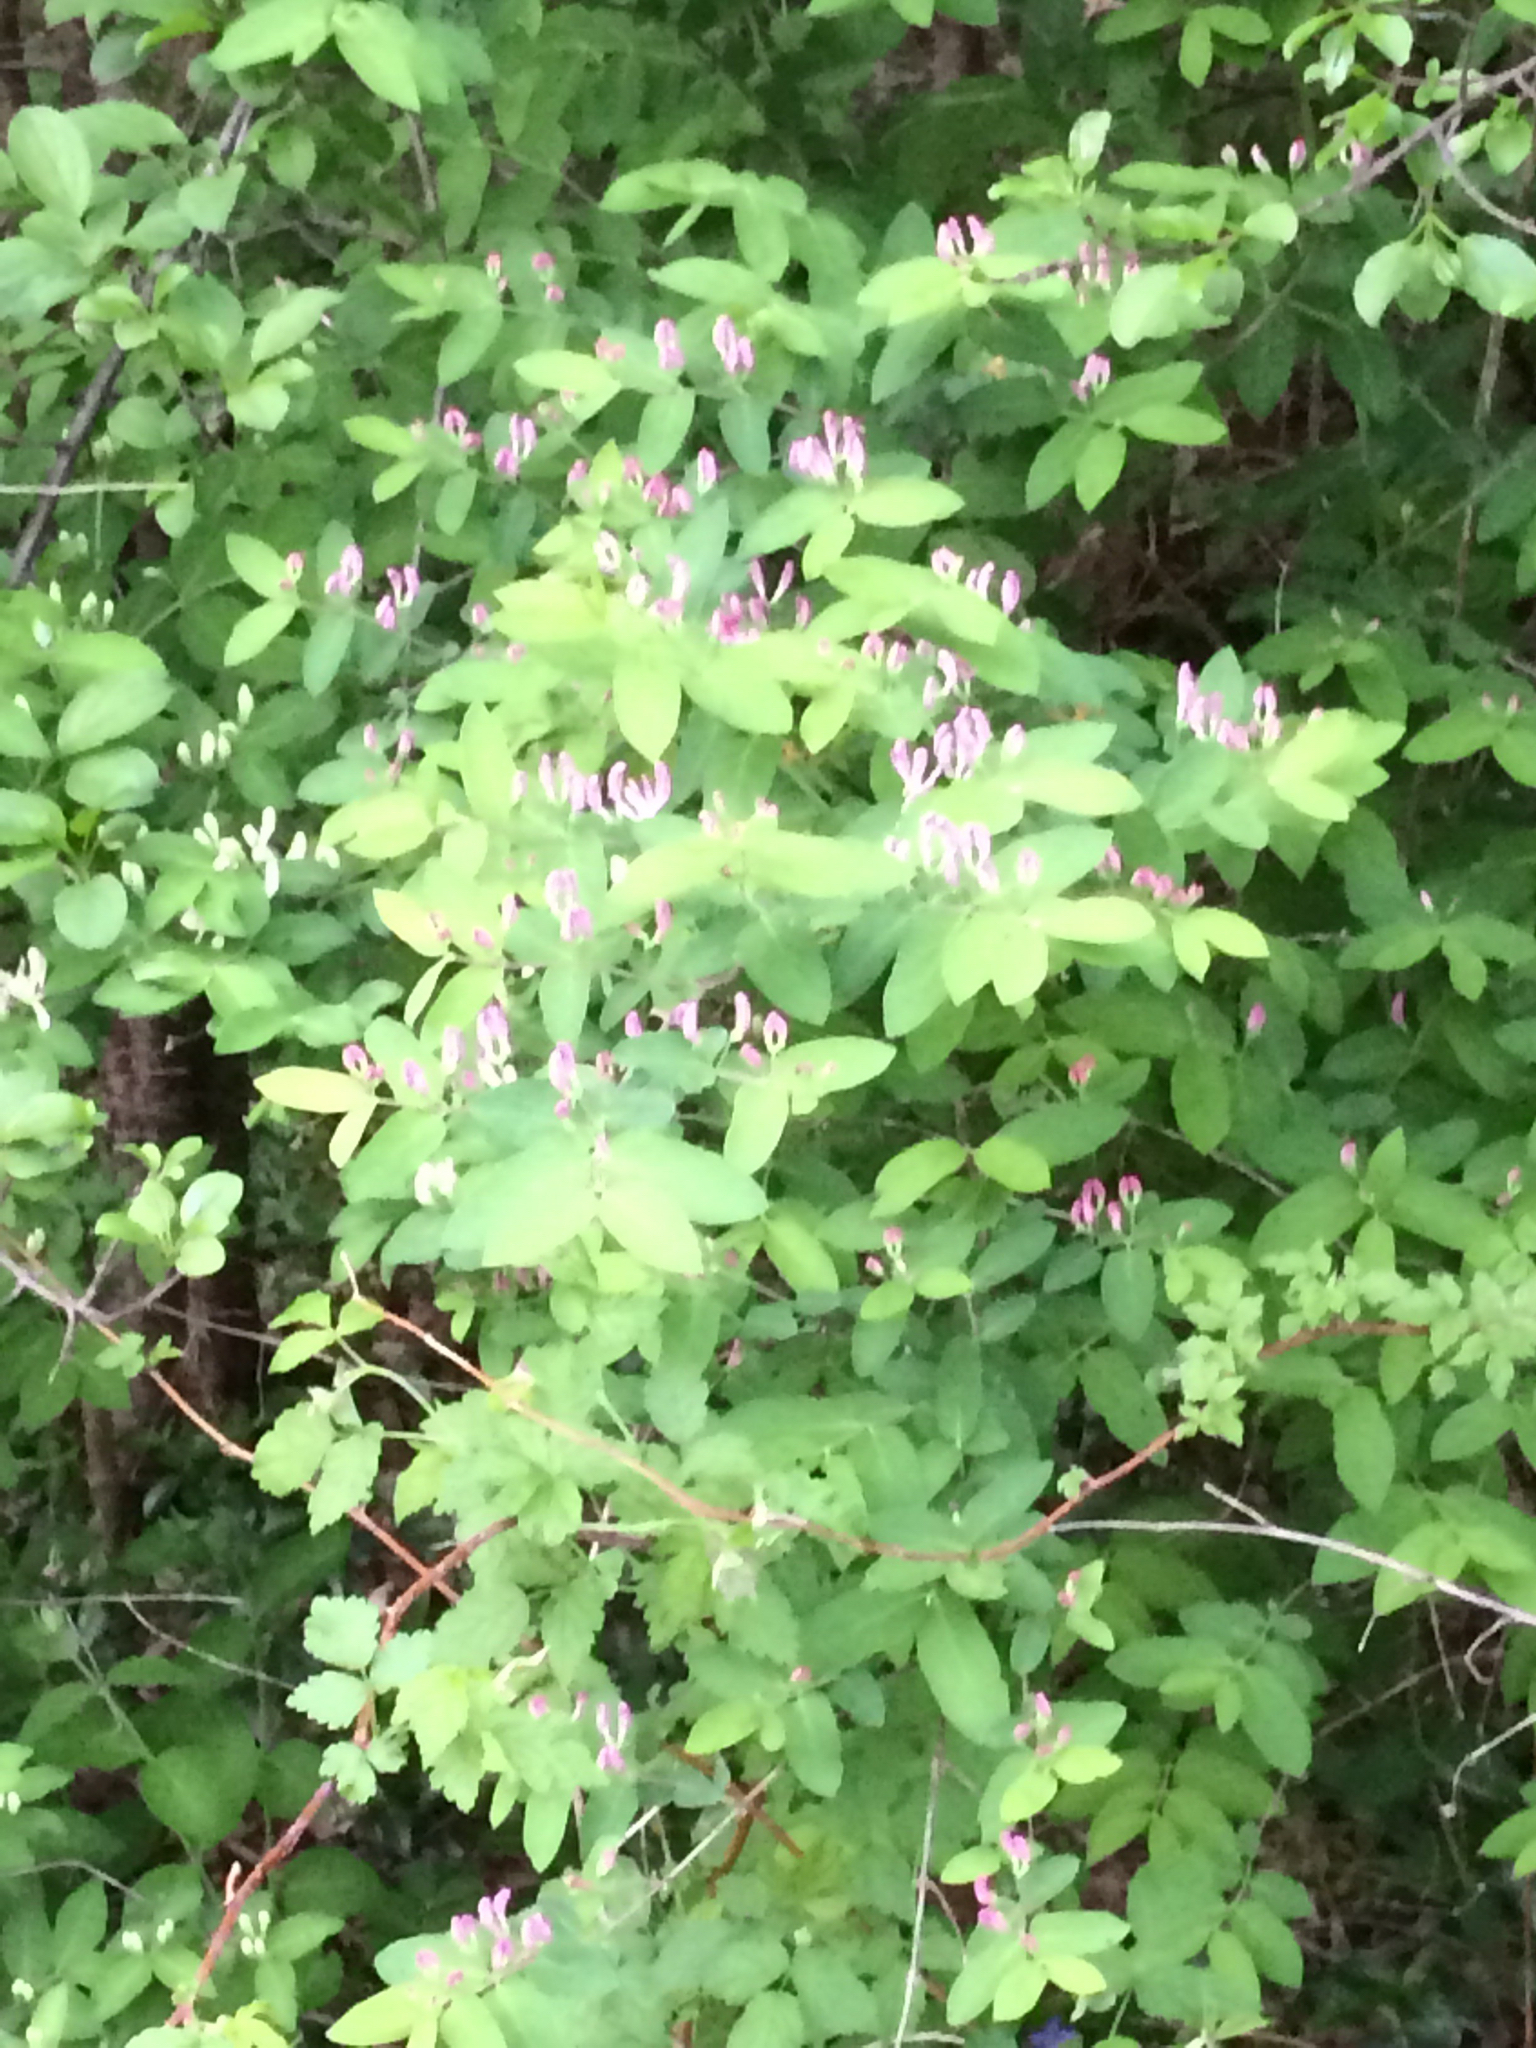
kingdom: Plantae
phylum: Tracheophyta
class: Magnoliopsida
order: Dipsacales
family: Caprifoliaceae
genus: Lonicera
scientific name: Lonicera tatarica
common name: Tatarian honeysuckle
